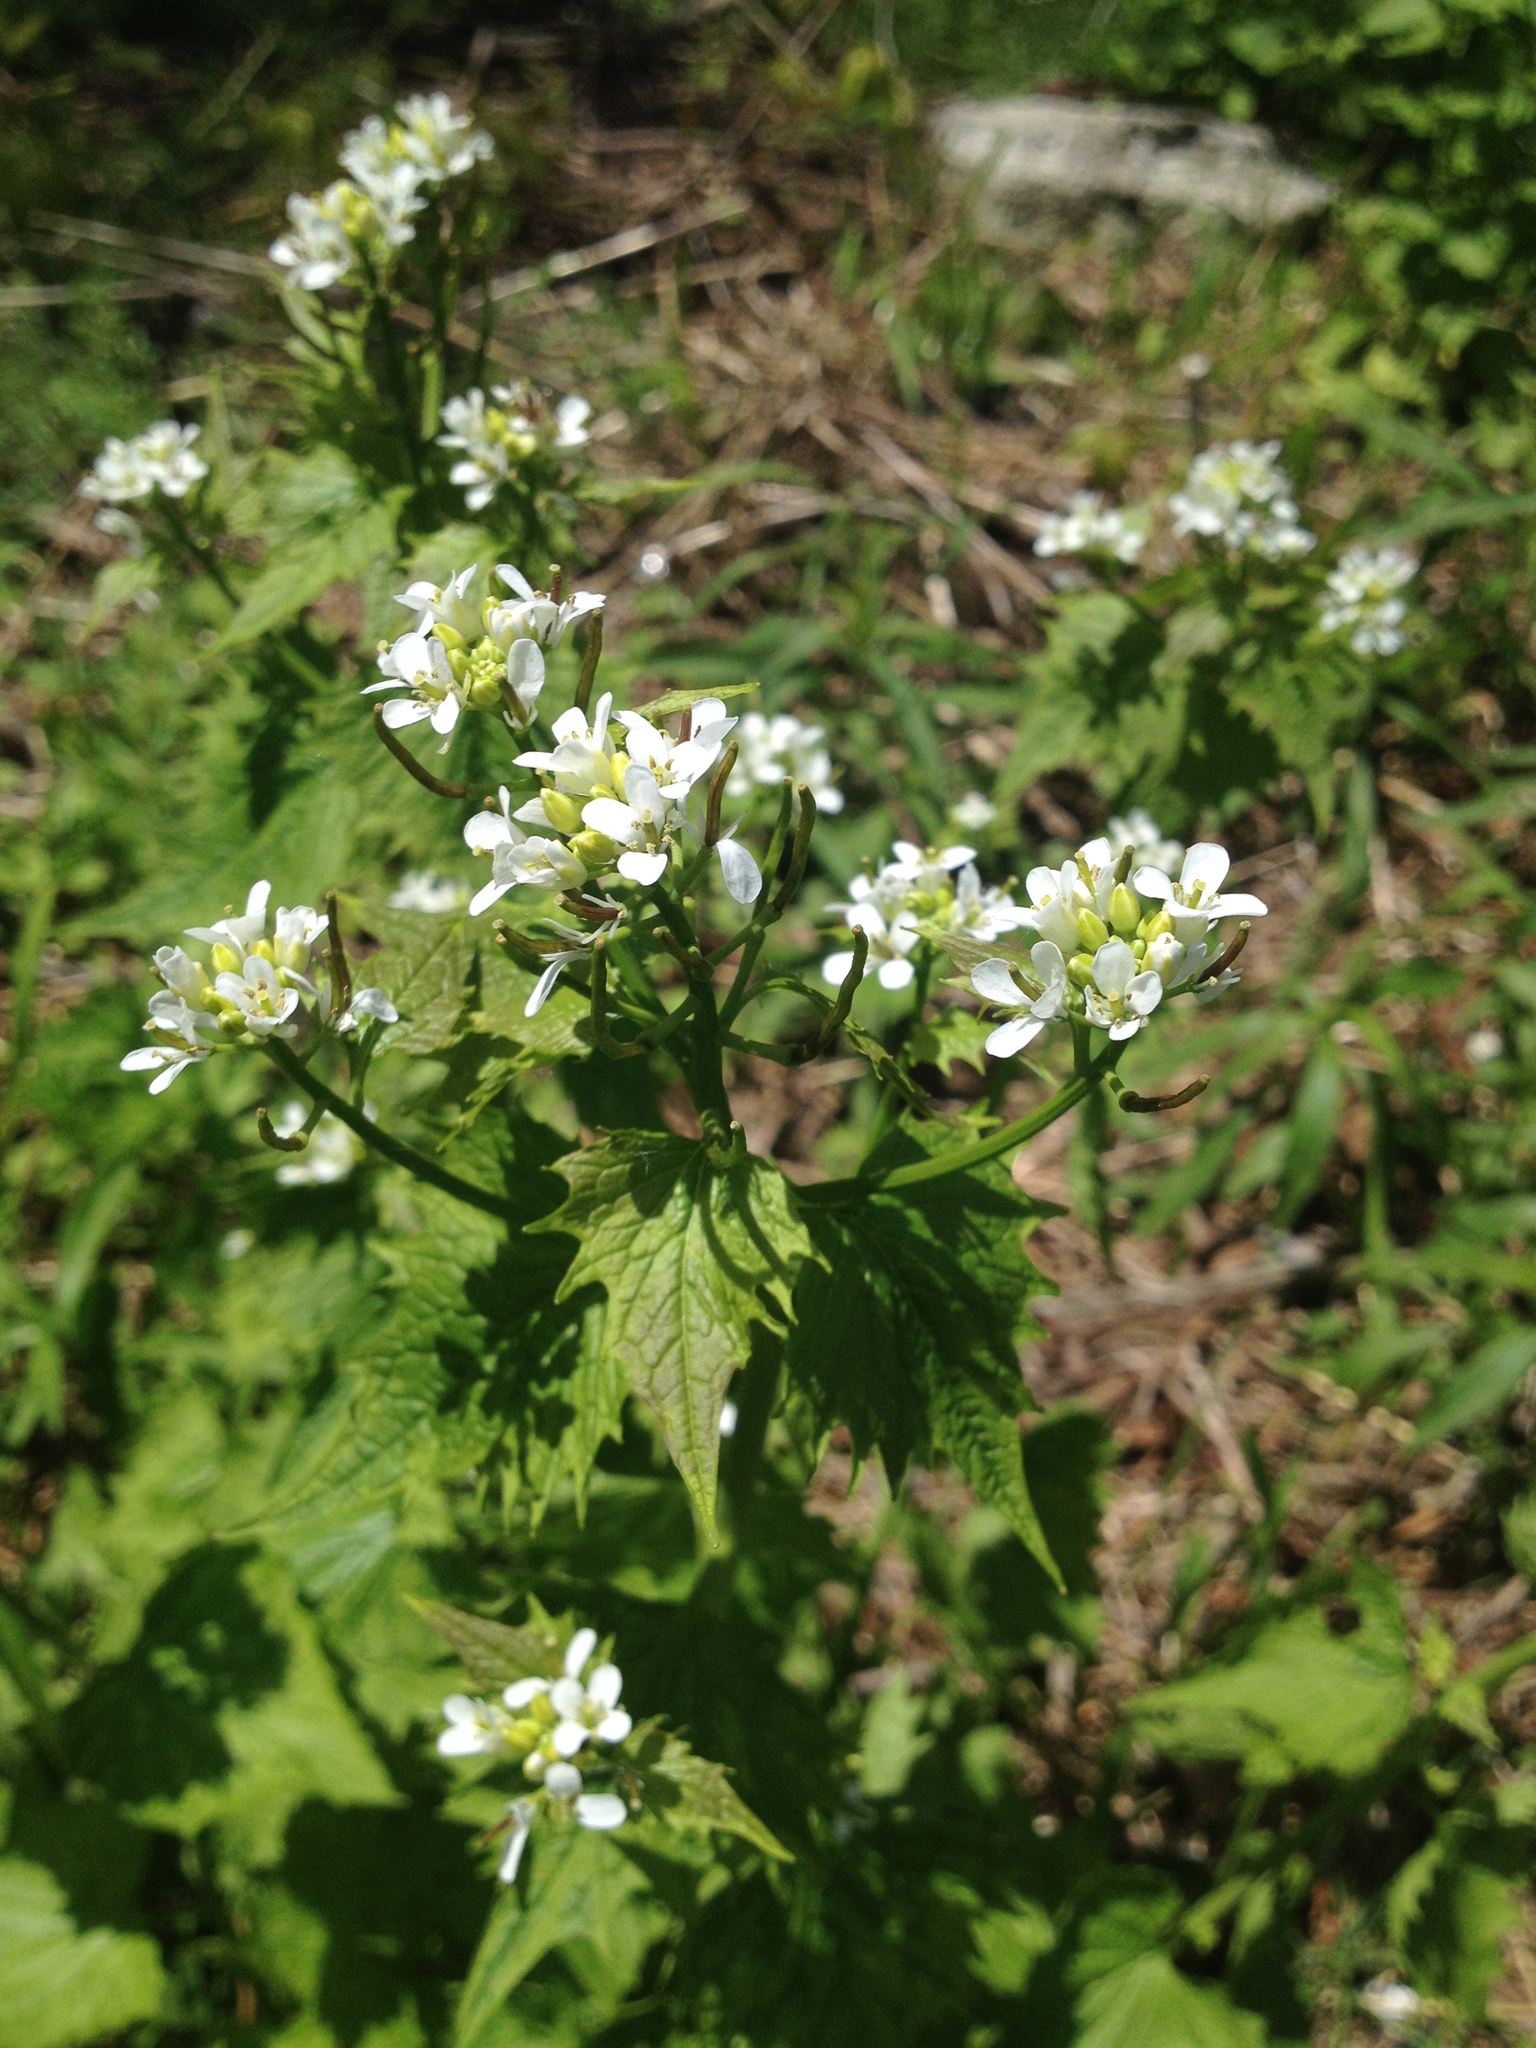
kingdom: Plantae
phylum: Tracheophyta
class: Magnoliopsida
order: Brassicales
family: Brassicaceae
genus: Alliaria
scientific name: Alliaria petiolata
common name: Garlic mustard
